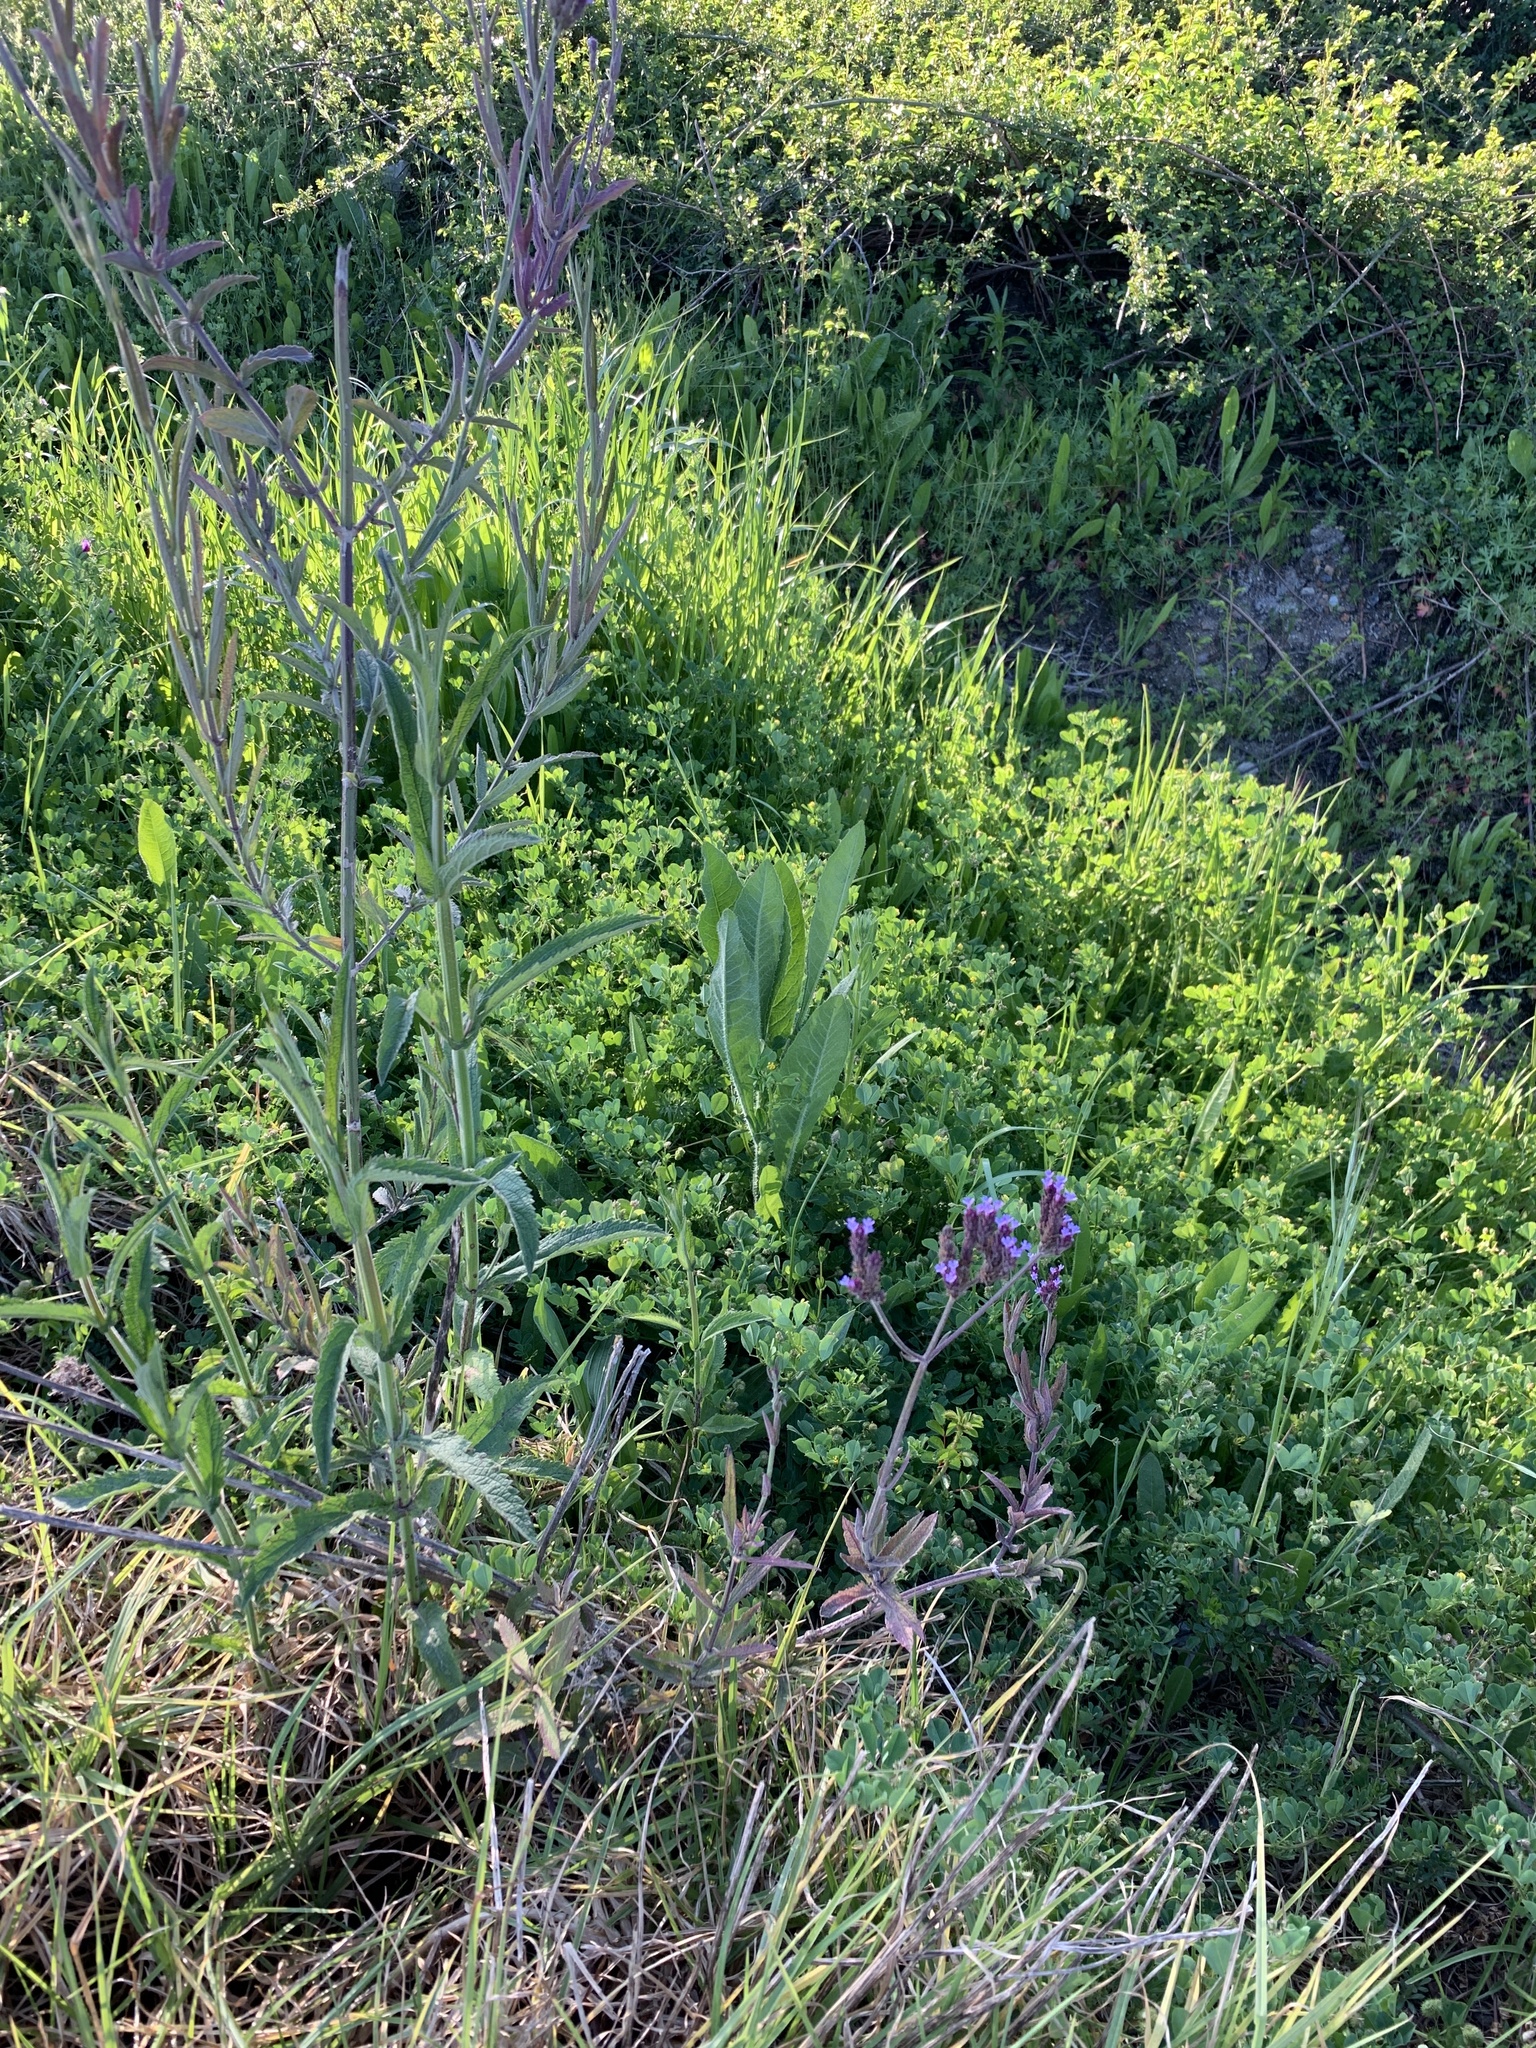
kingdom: Plantae
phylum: Tracheophyta
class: Magnoliopsida
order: Lamiales
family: Verbenaceae
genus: Verbena
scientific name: Verbena bonariensis
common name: Purpletop vervain
